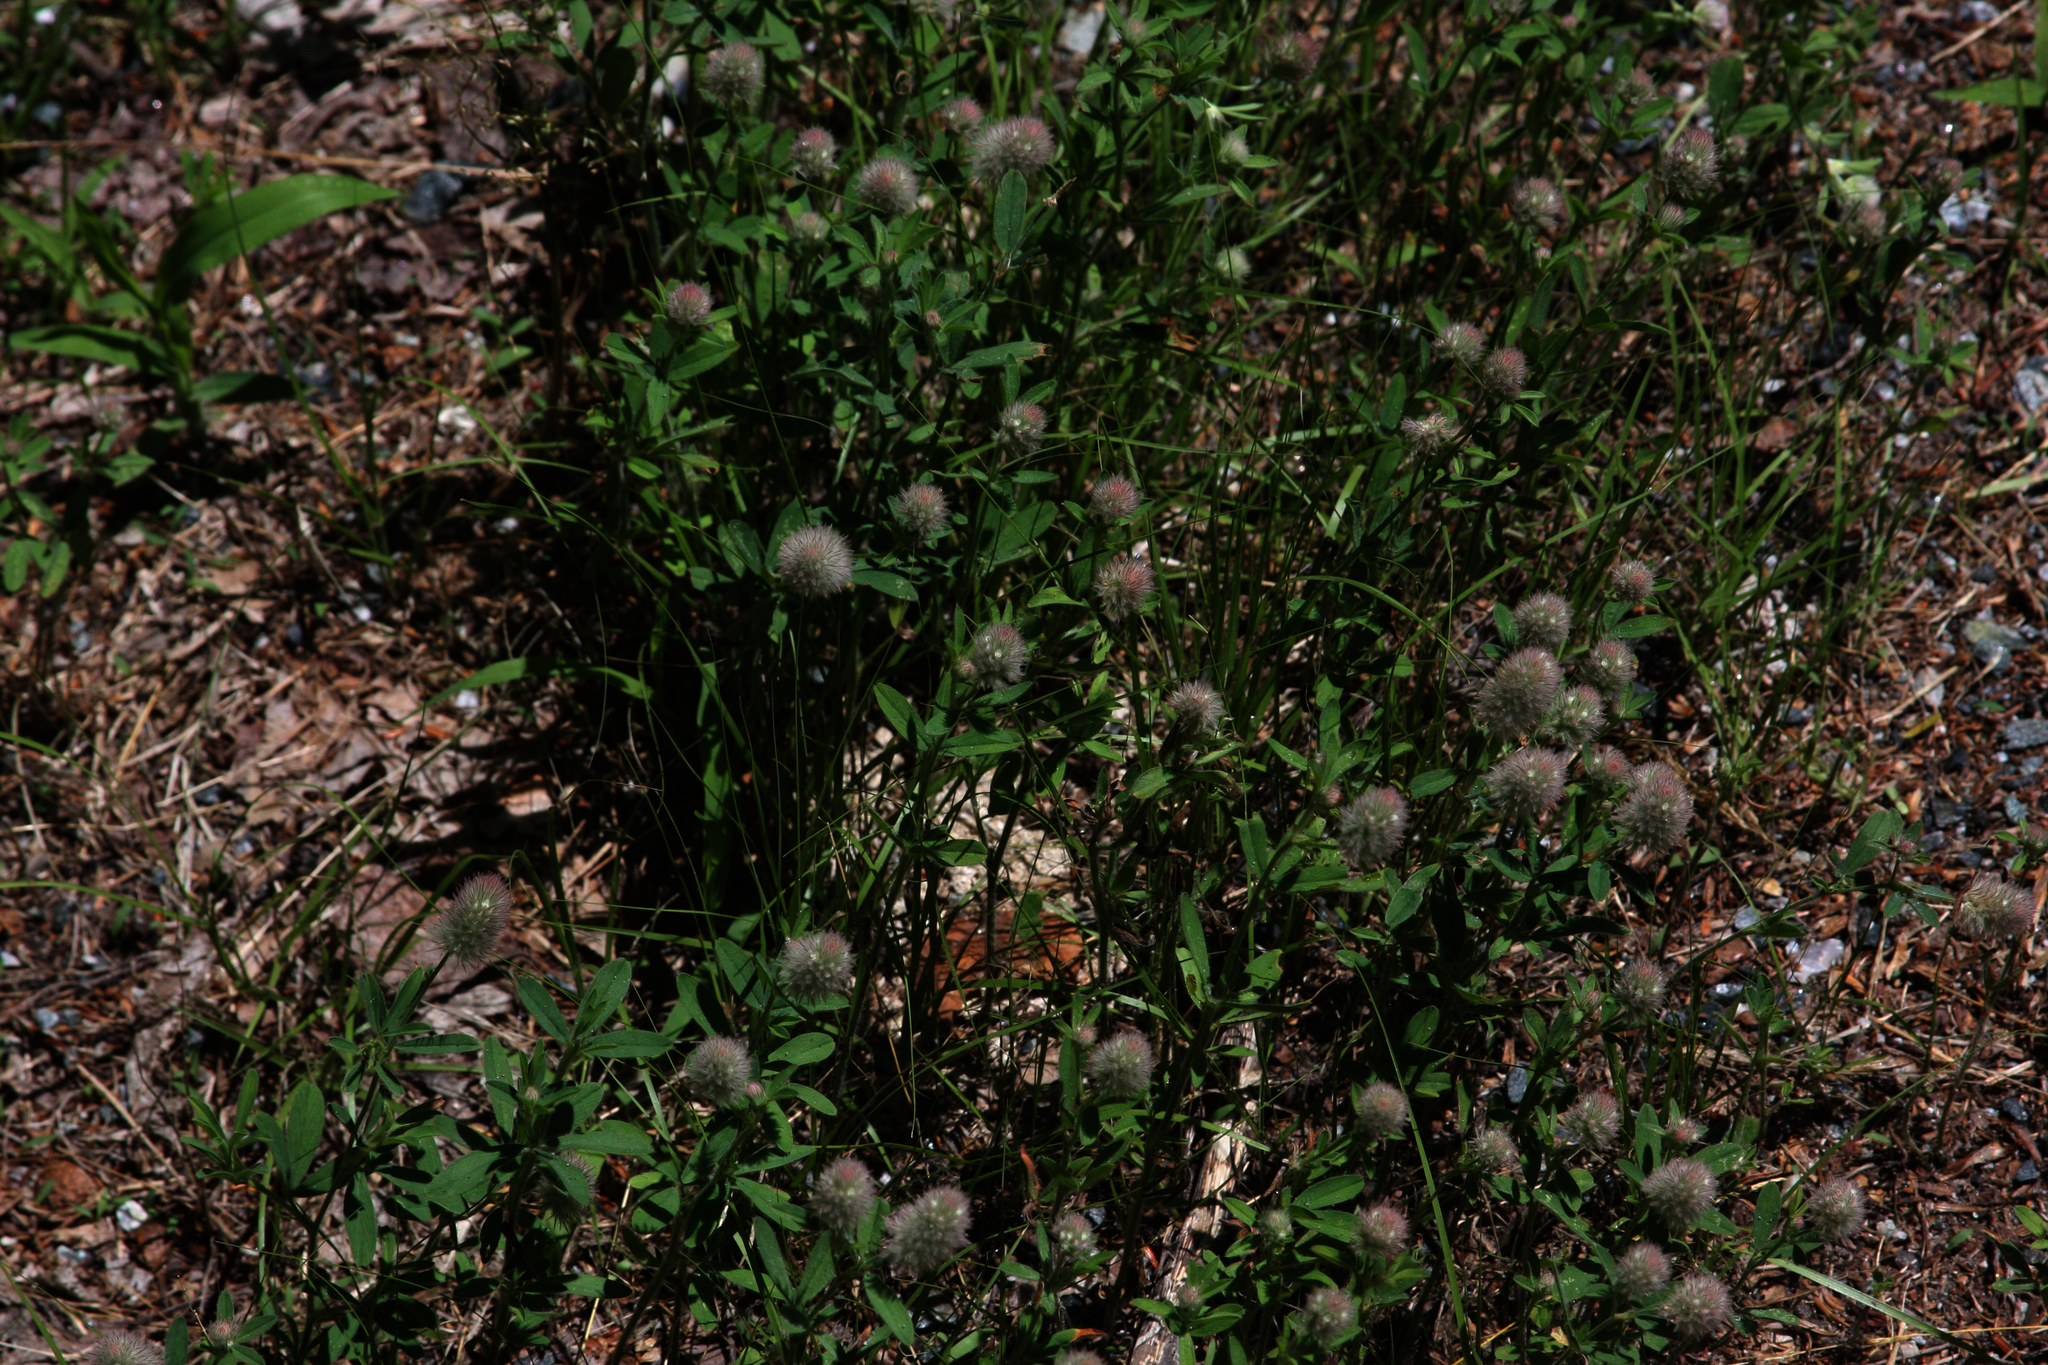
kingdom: Plantae
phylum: Tracheophyta
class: Magnoliopsida
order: Fabales
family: Fabaceae
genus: Trifolium
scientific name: Trifolium arvense
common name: Hare's-foot clover
